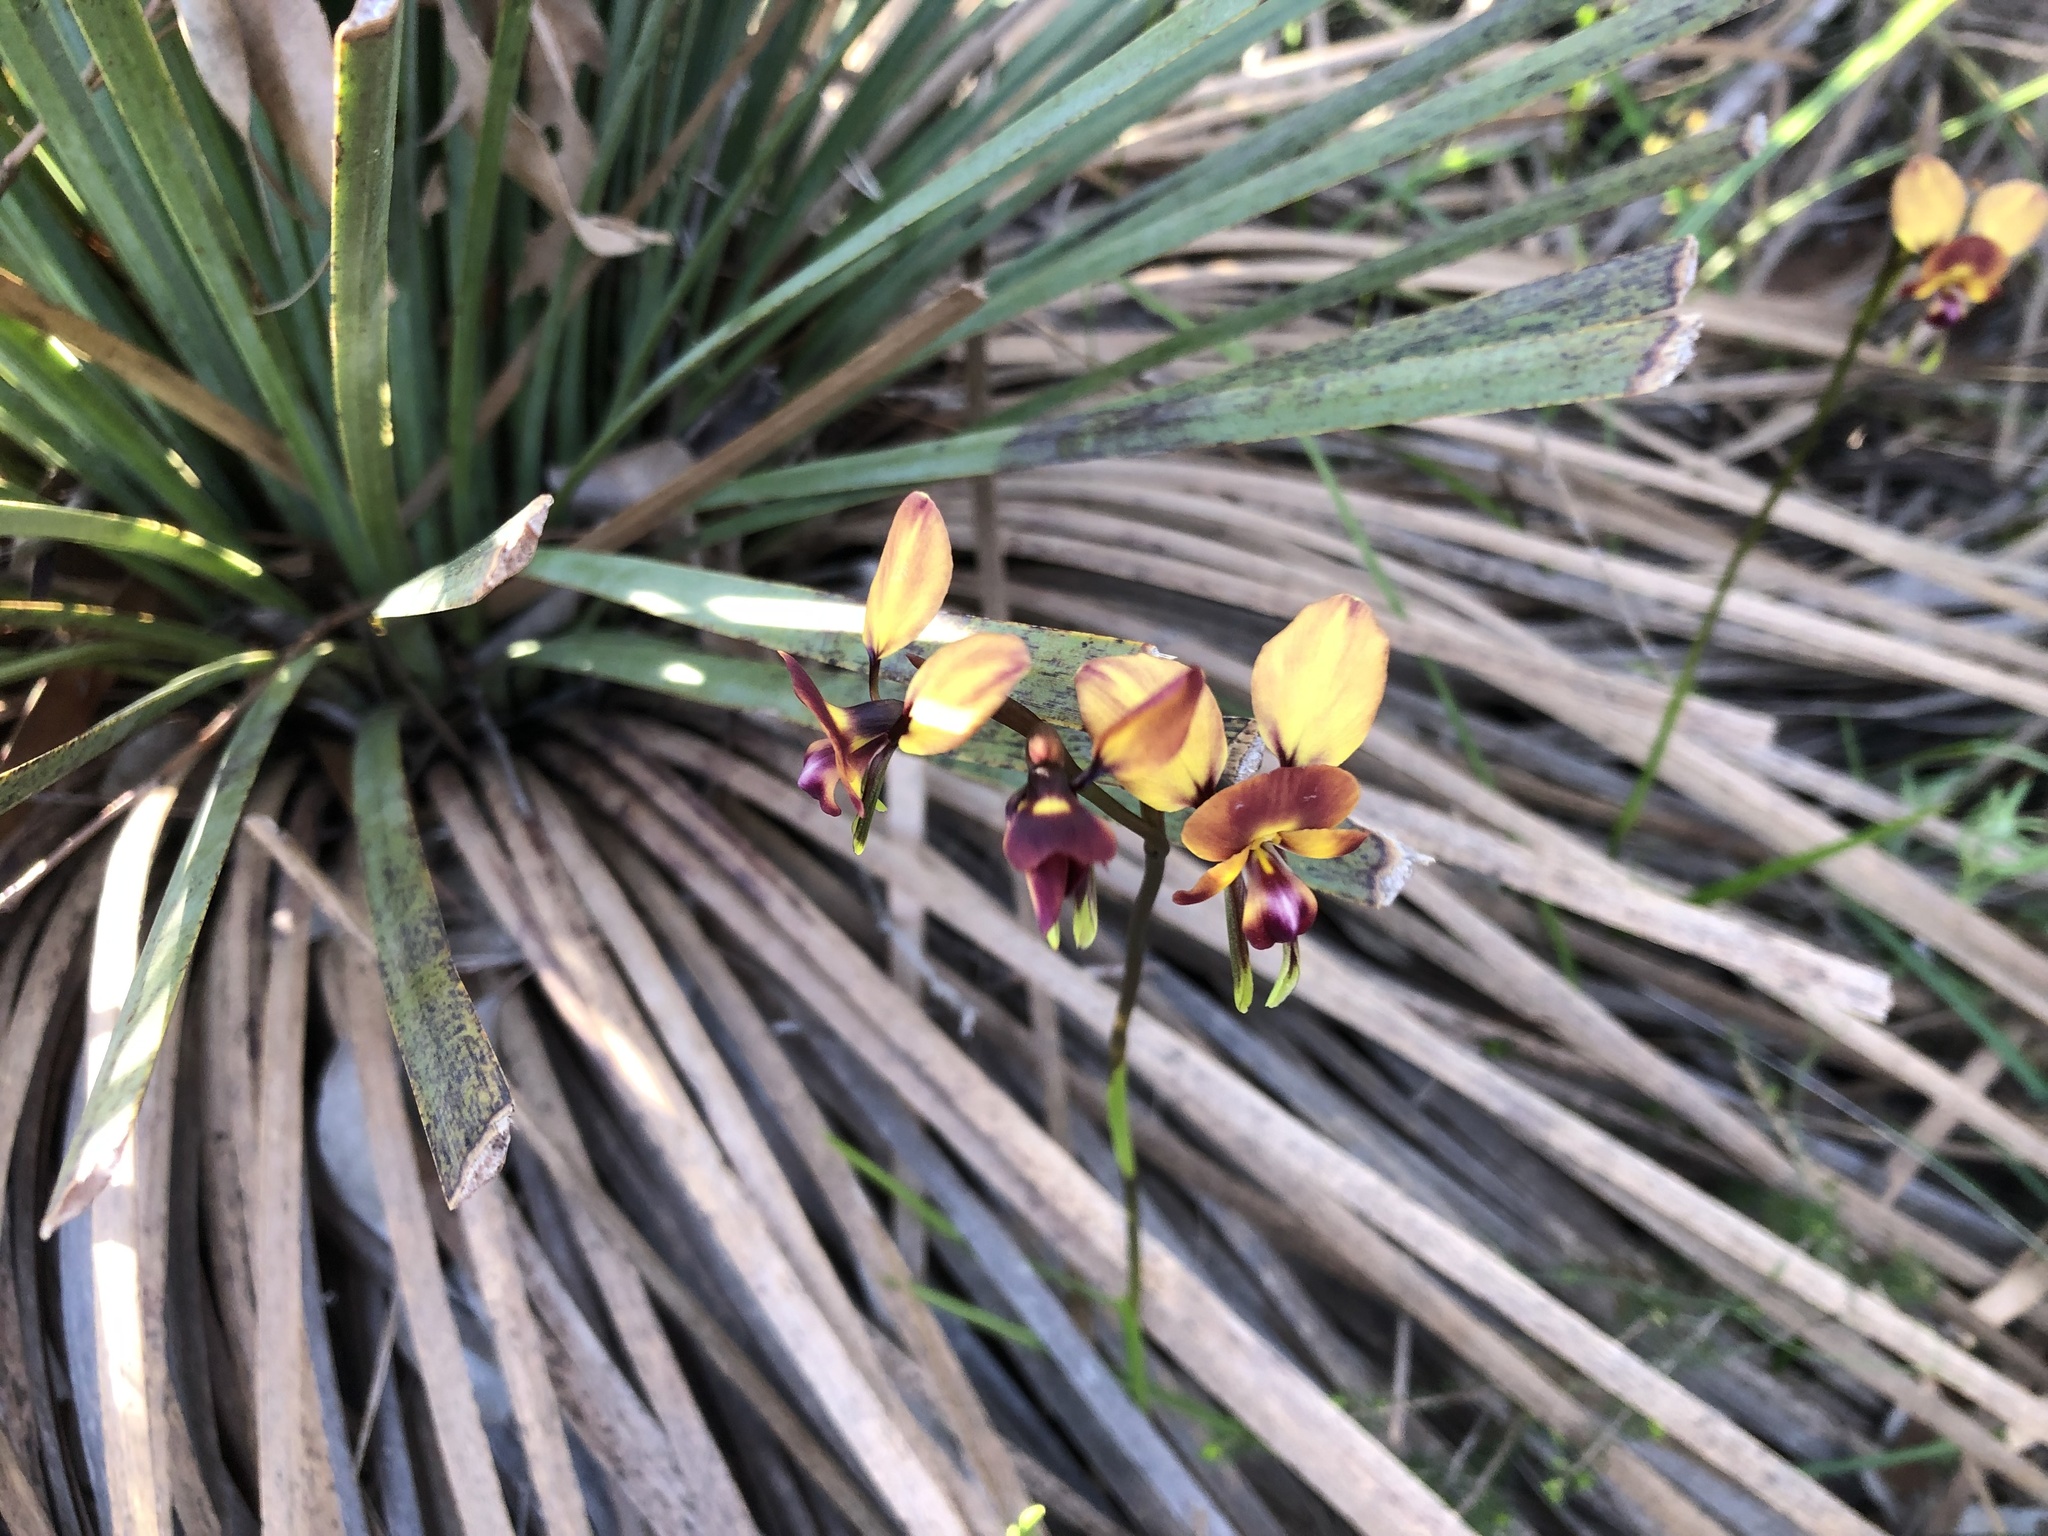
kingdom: Plantae
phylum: Tracheophyta
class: Liliopsida
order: Asparagales
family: Orchidaceae
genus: Diuris
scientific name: Diuris orientis
